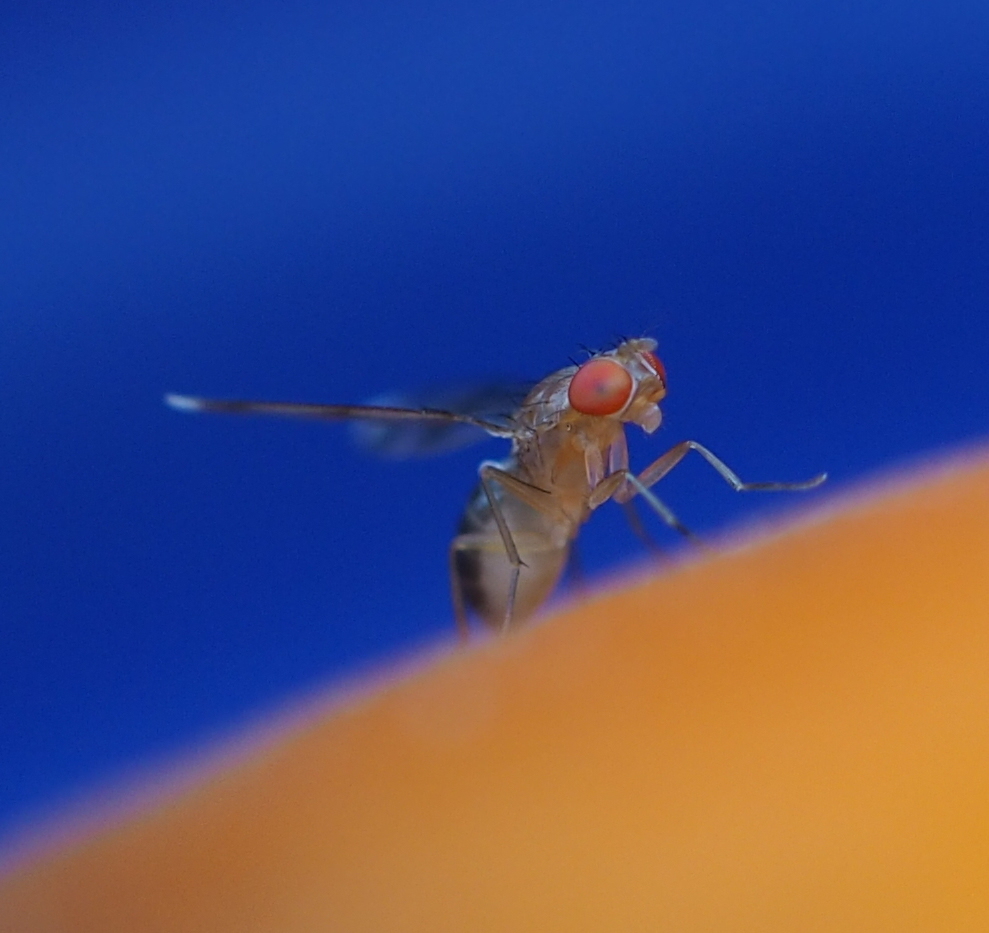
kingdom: Animalia
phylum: Arthropoda
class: Insecta
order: Diptera
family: Drosophilidae
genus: Chymomyza
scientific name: Chymomyza amoena
